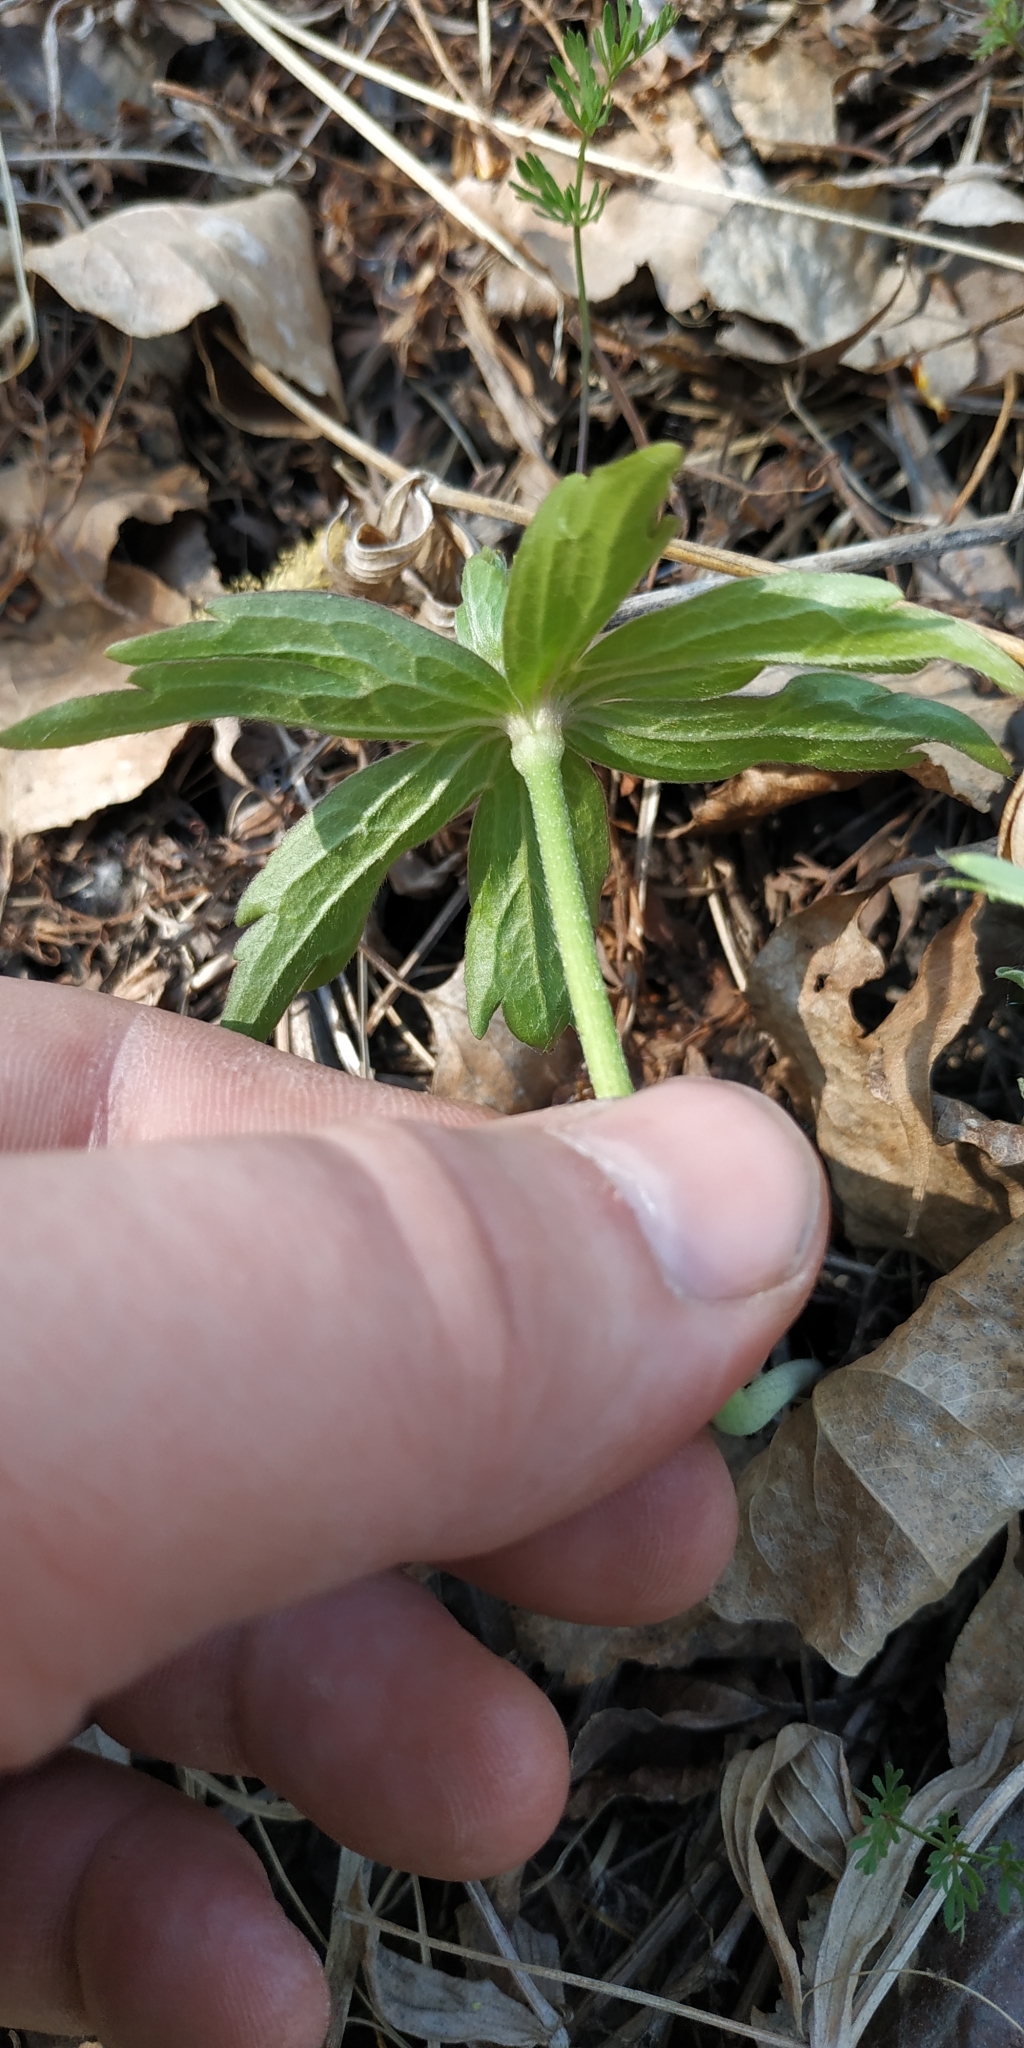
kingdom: Plantae
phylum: Tracheophyta
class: Magnoliopsida
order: Ranunculales
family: Ranunculaceae
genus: Anemonastrum
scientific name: Anemonastrum dichotomum
